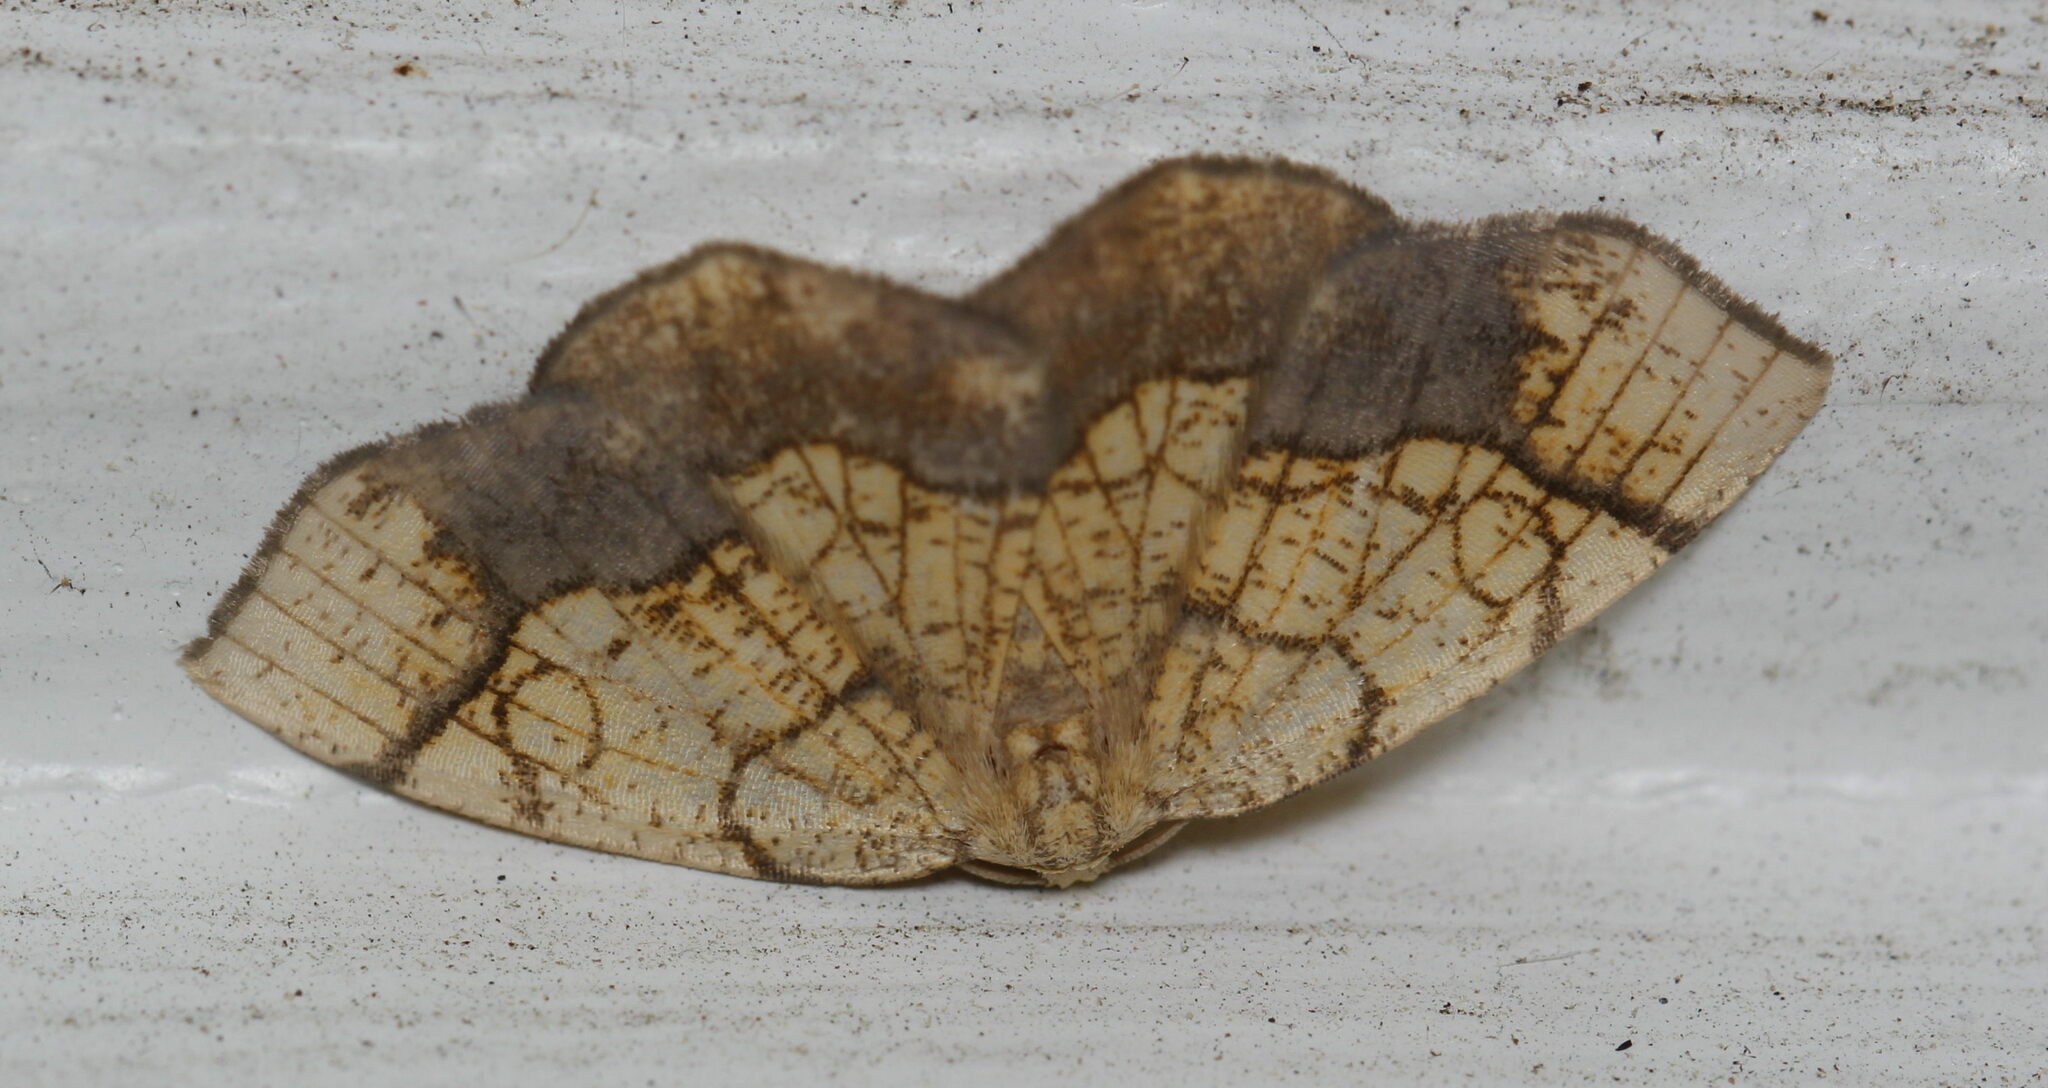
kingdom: Animalia
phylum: Arthropoda
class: Insecta
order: Lepidoptera
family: Geometridae
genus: Nematocampa
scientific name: Nematocampa resistaria
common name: Horned spanworm moth
